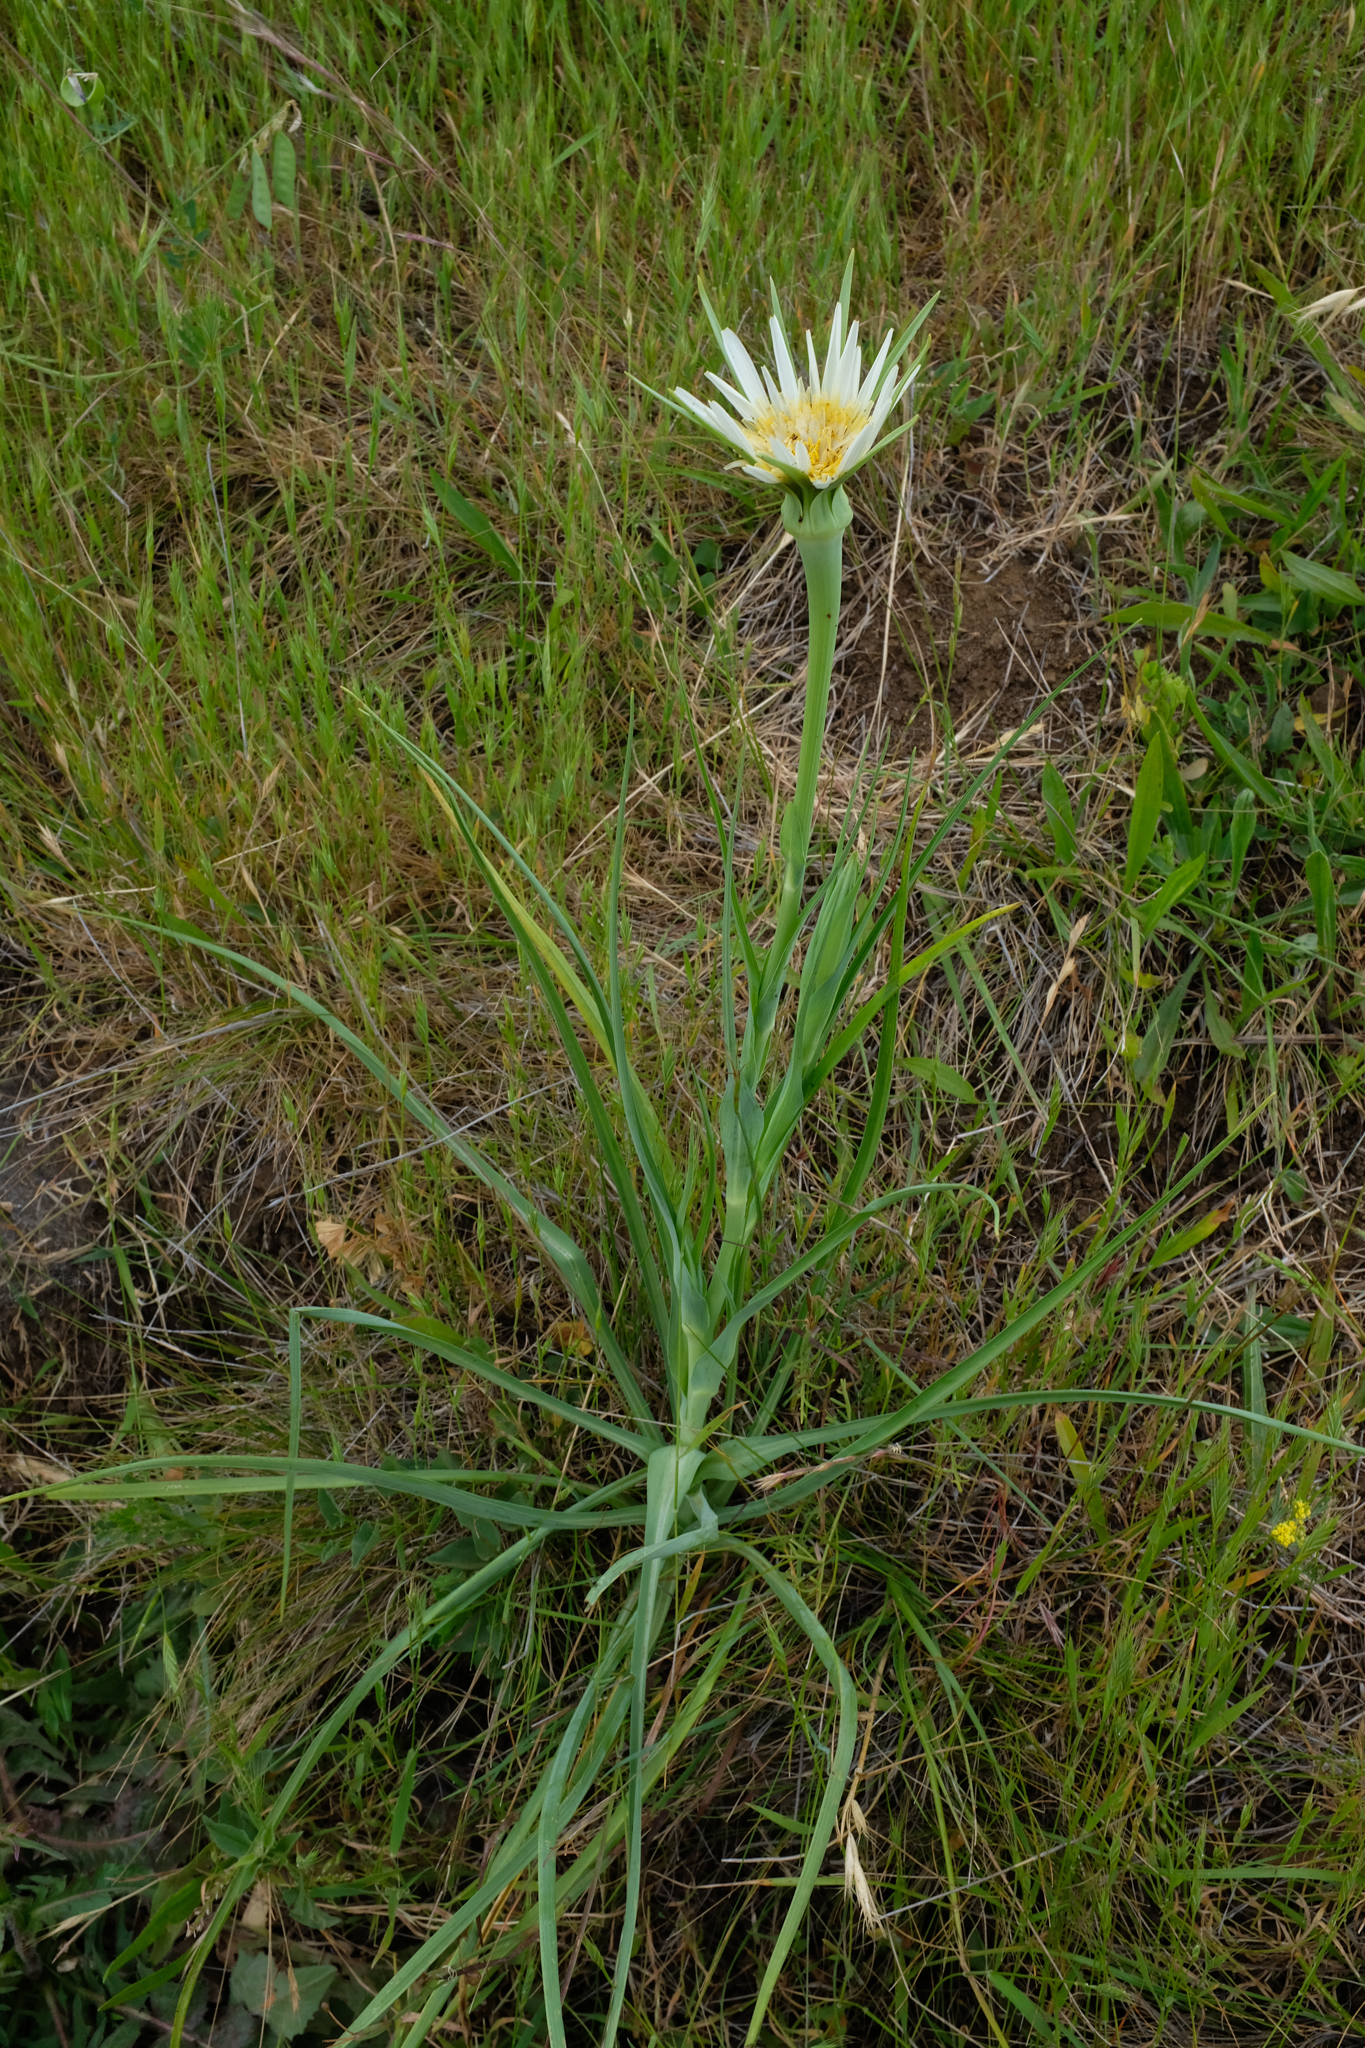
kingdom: Plantae
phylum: Tracheophyta
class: Magnoliopsida
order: Asterales
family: Asteraceae
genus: Tragopogon
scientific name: Tragopogon porrifolius
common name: Salsify
